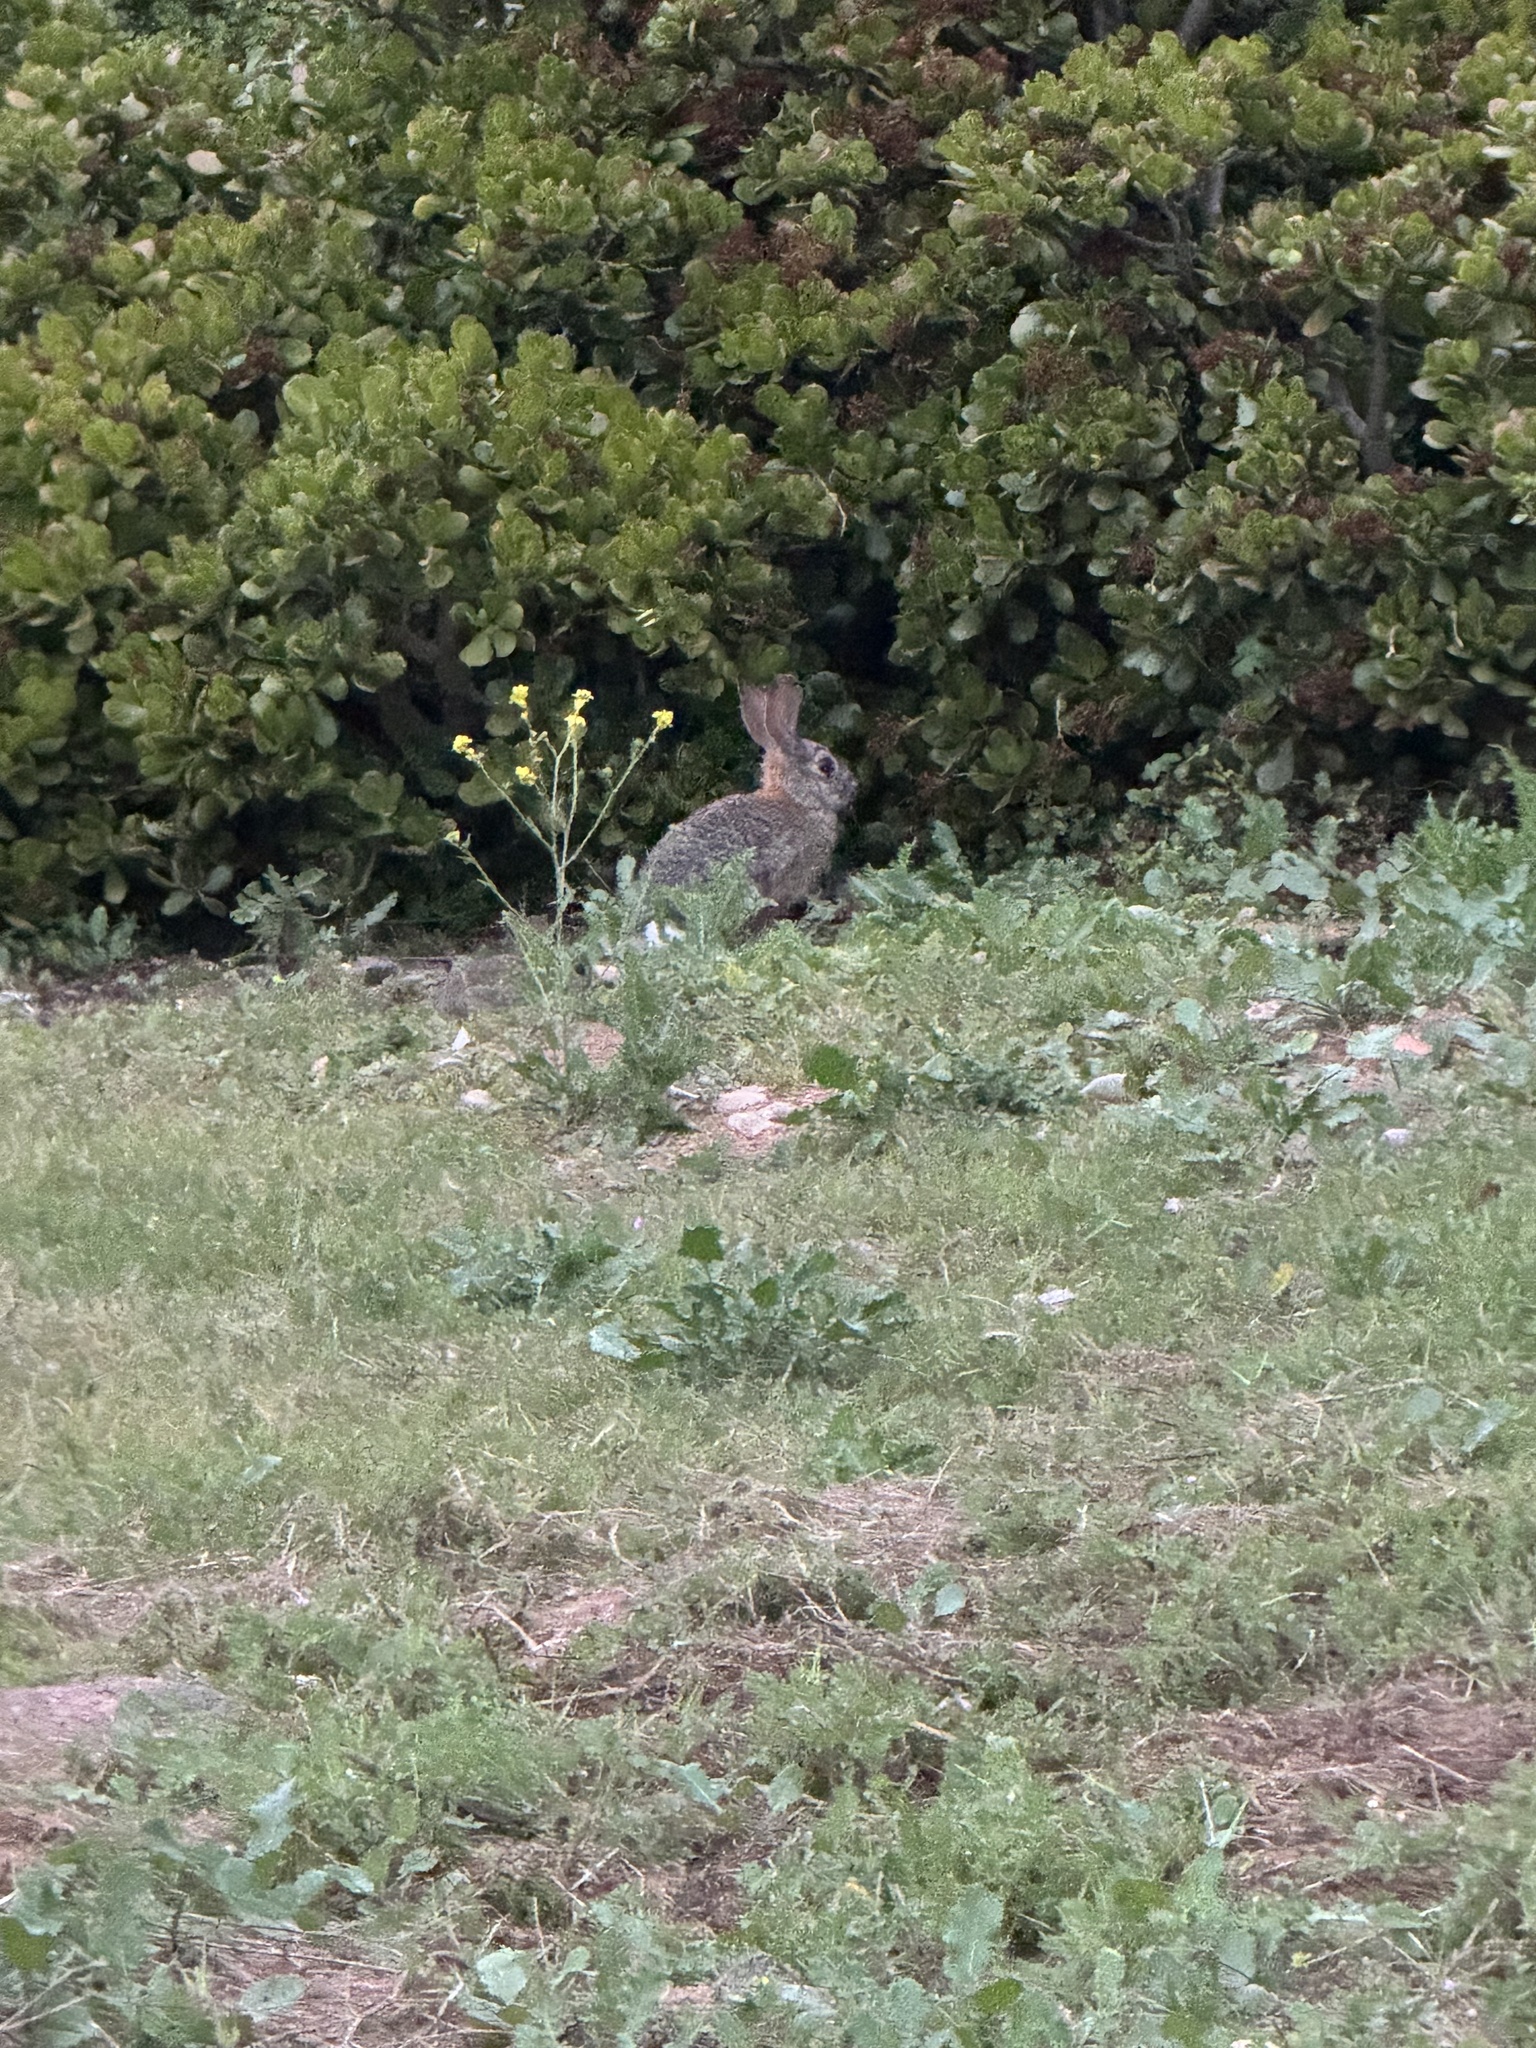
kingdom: Animalia
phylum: Chordata
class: Mammalia
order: Lagomorpha
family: Leporidae
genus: Sylvilagus
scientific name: Sylvilagus audubonii
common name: Desert cottontail
